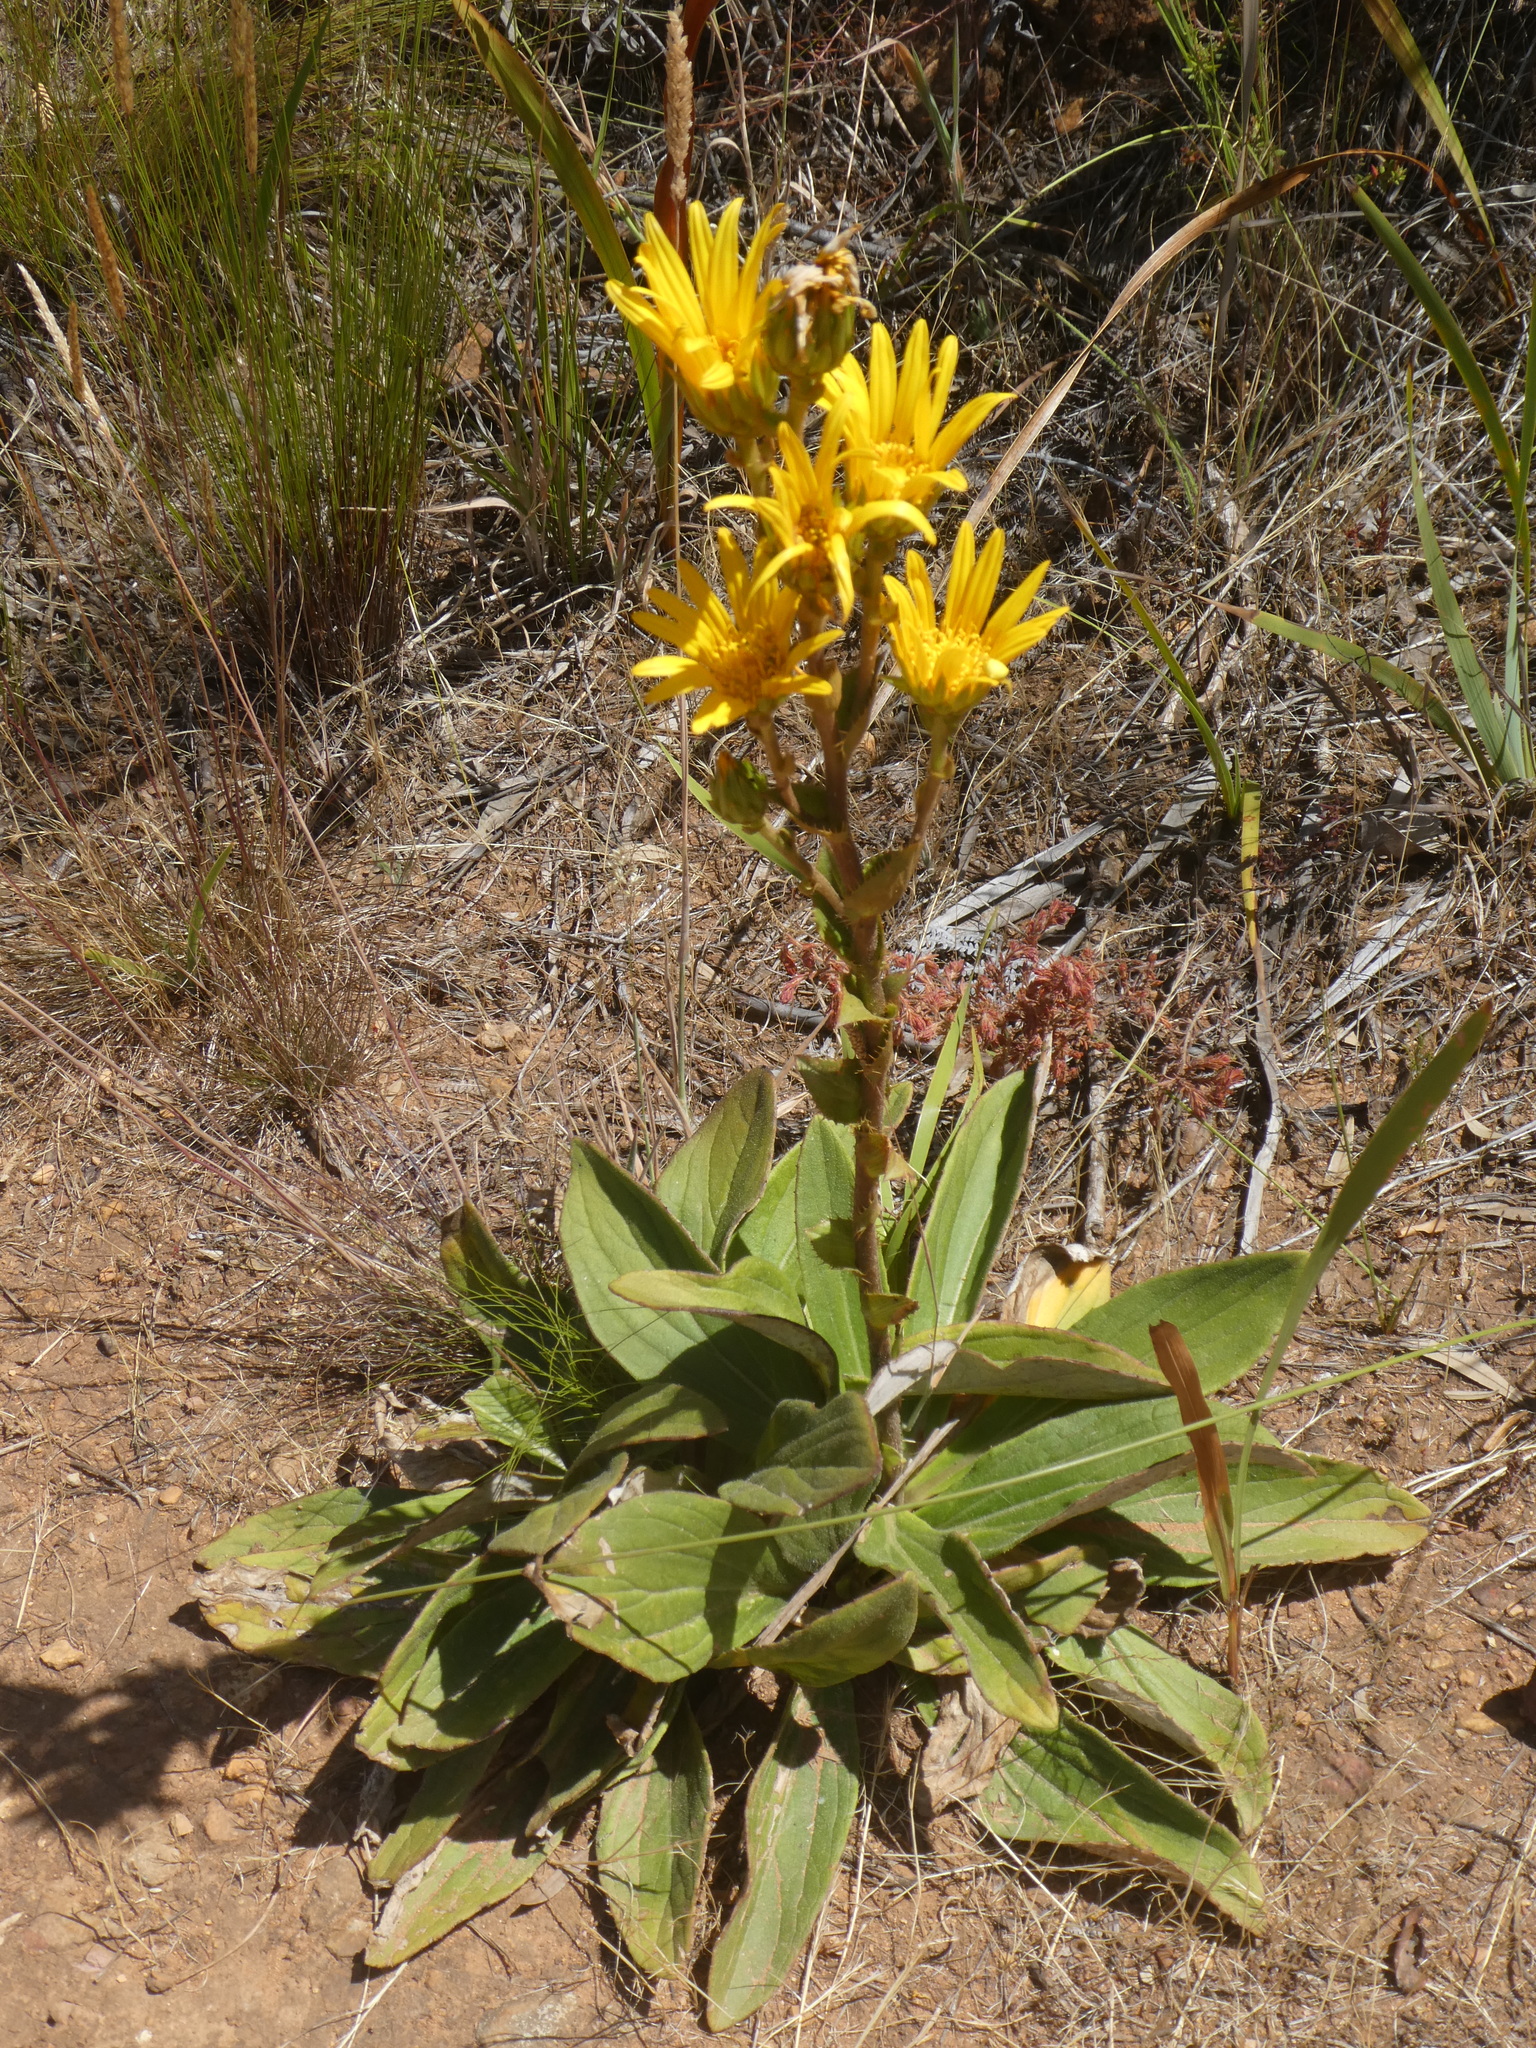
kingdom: Plantae
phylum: Tracheophyta
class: Magnoliopsida
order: Asterales
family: Asteraceae
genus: Berkheya
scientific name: Berkheya herbacea
